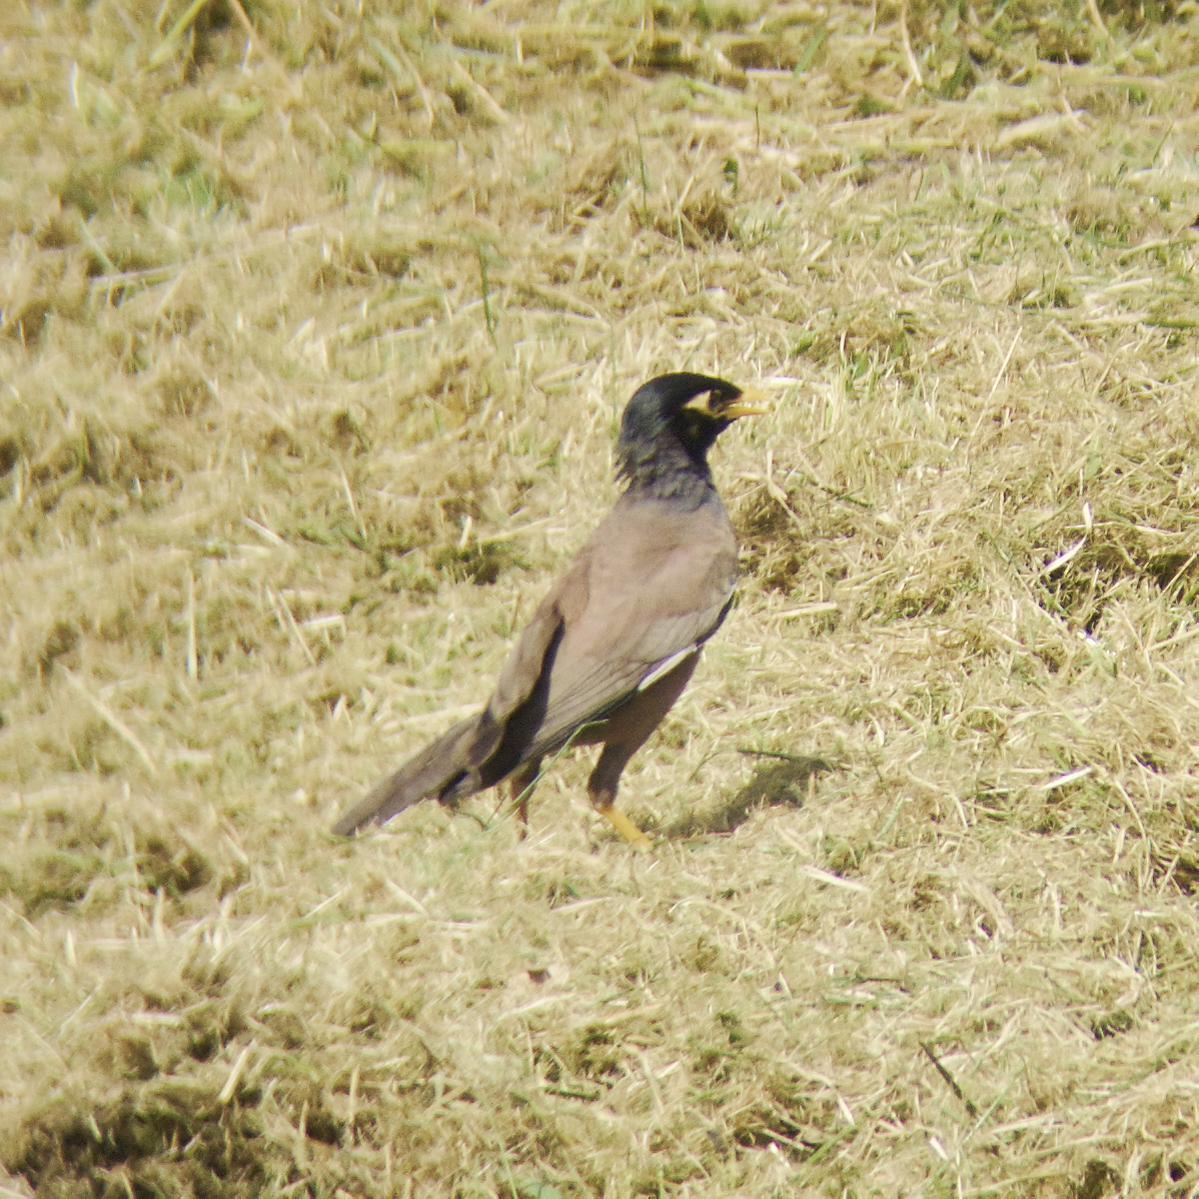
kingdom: Animalia
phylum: Chordata
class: Aves
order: Passeriformes
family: Sturnidae
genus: Acridotheres
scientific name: Acridotheres tristis
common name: Common myna
